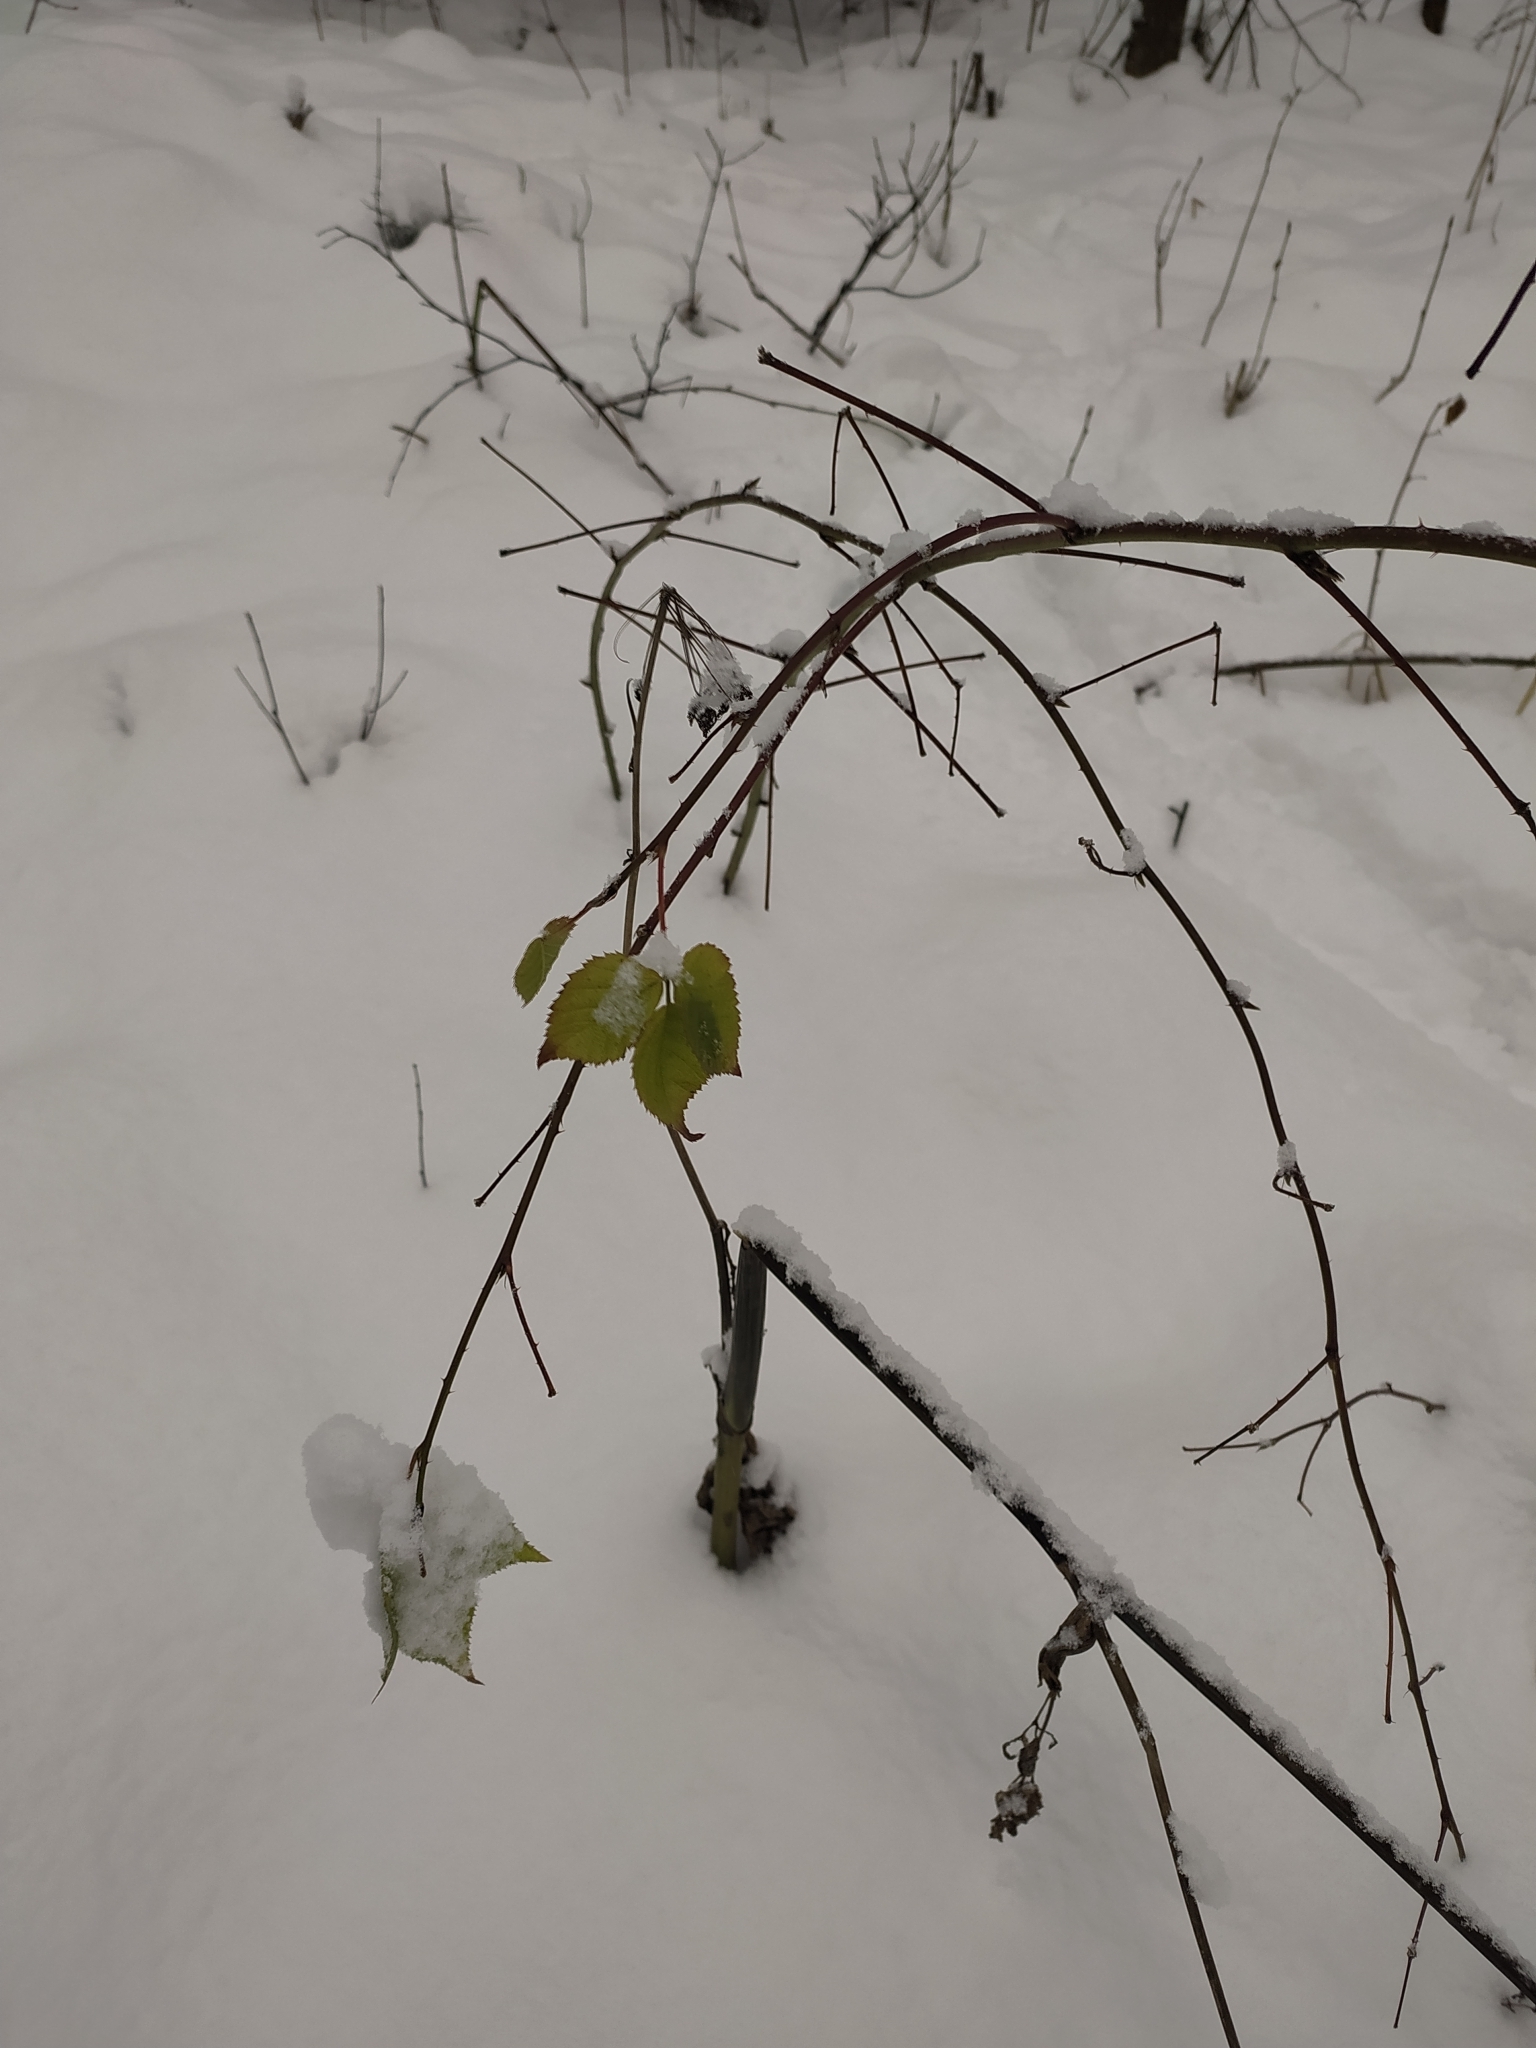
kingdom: Plantae
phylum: Tracheophyta
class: Magnoliopsida
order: Rosales
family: Rosaceae
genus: Rubus
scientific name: Rubus idaeus
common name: Raspberry
